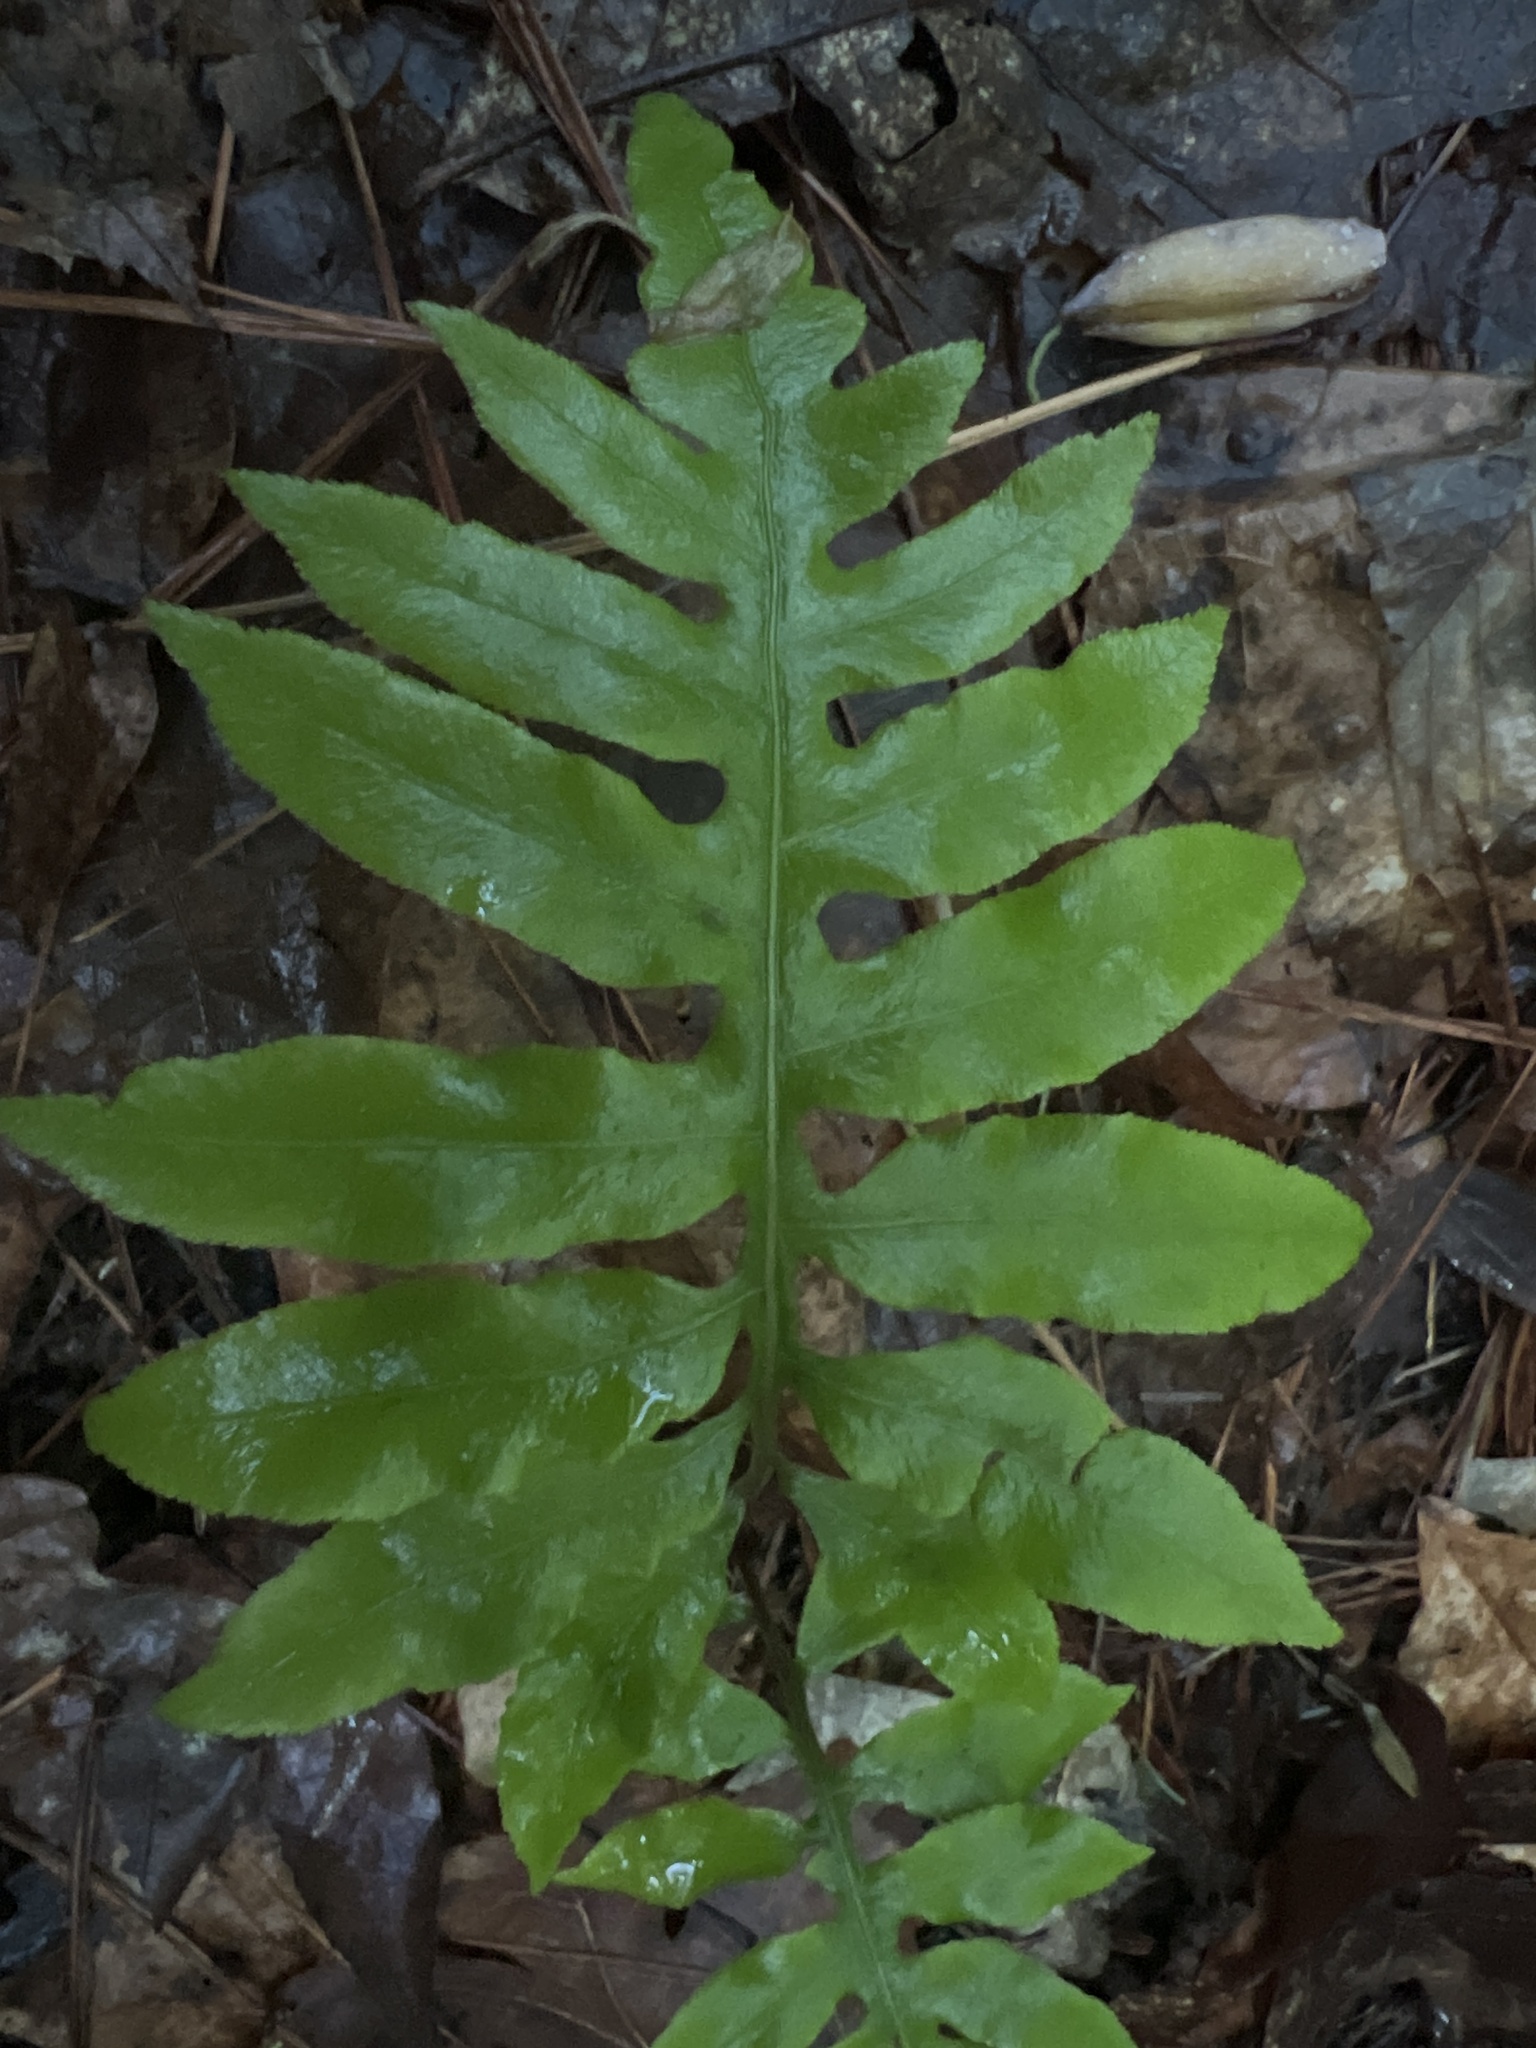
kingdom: Plantae
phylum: Tracheophyta
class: Polypodiopsida
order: Polypodiales
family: Blechnaceae
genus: Lorinseria
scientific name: Lorinseria areolata
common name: Dwarf chain fern
